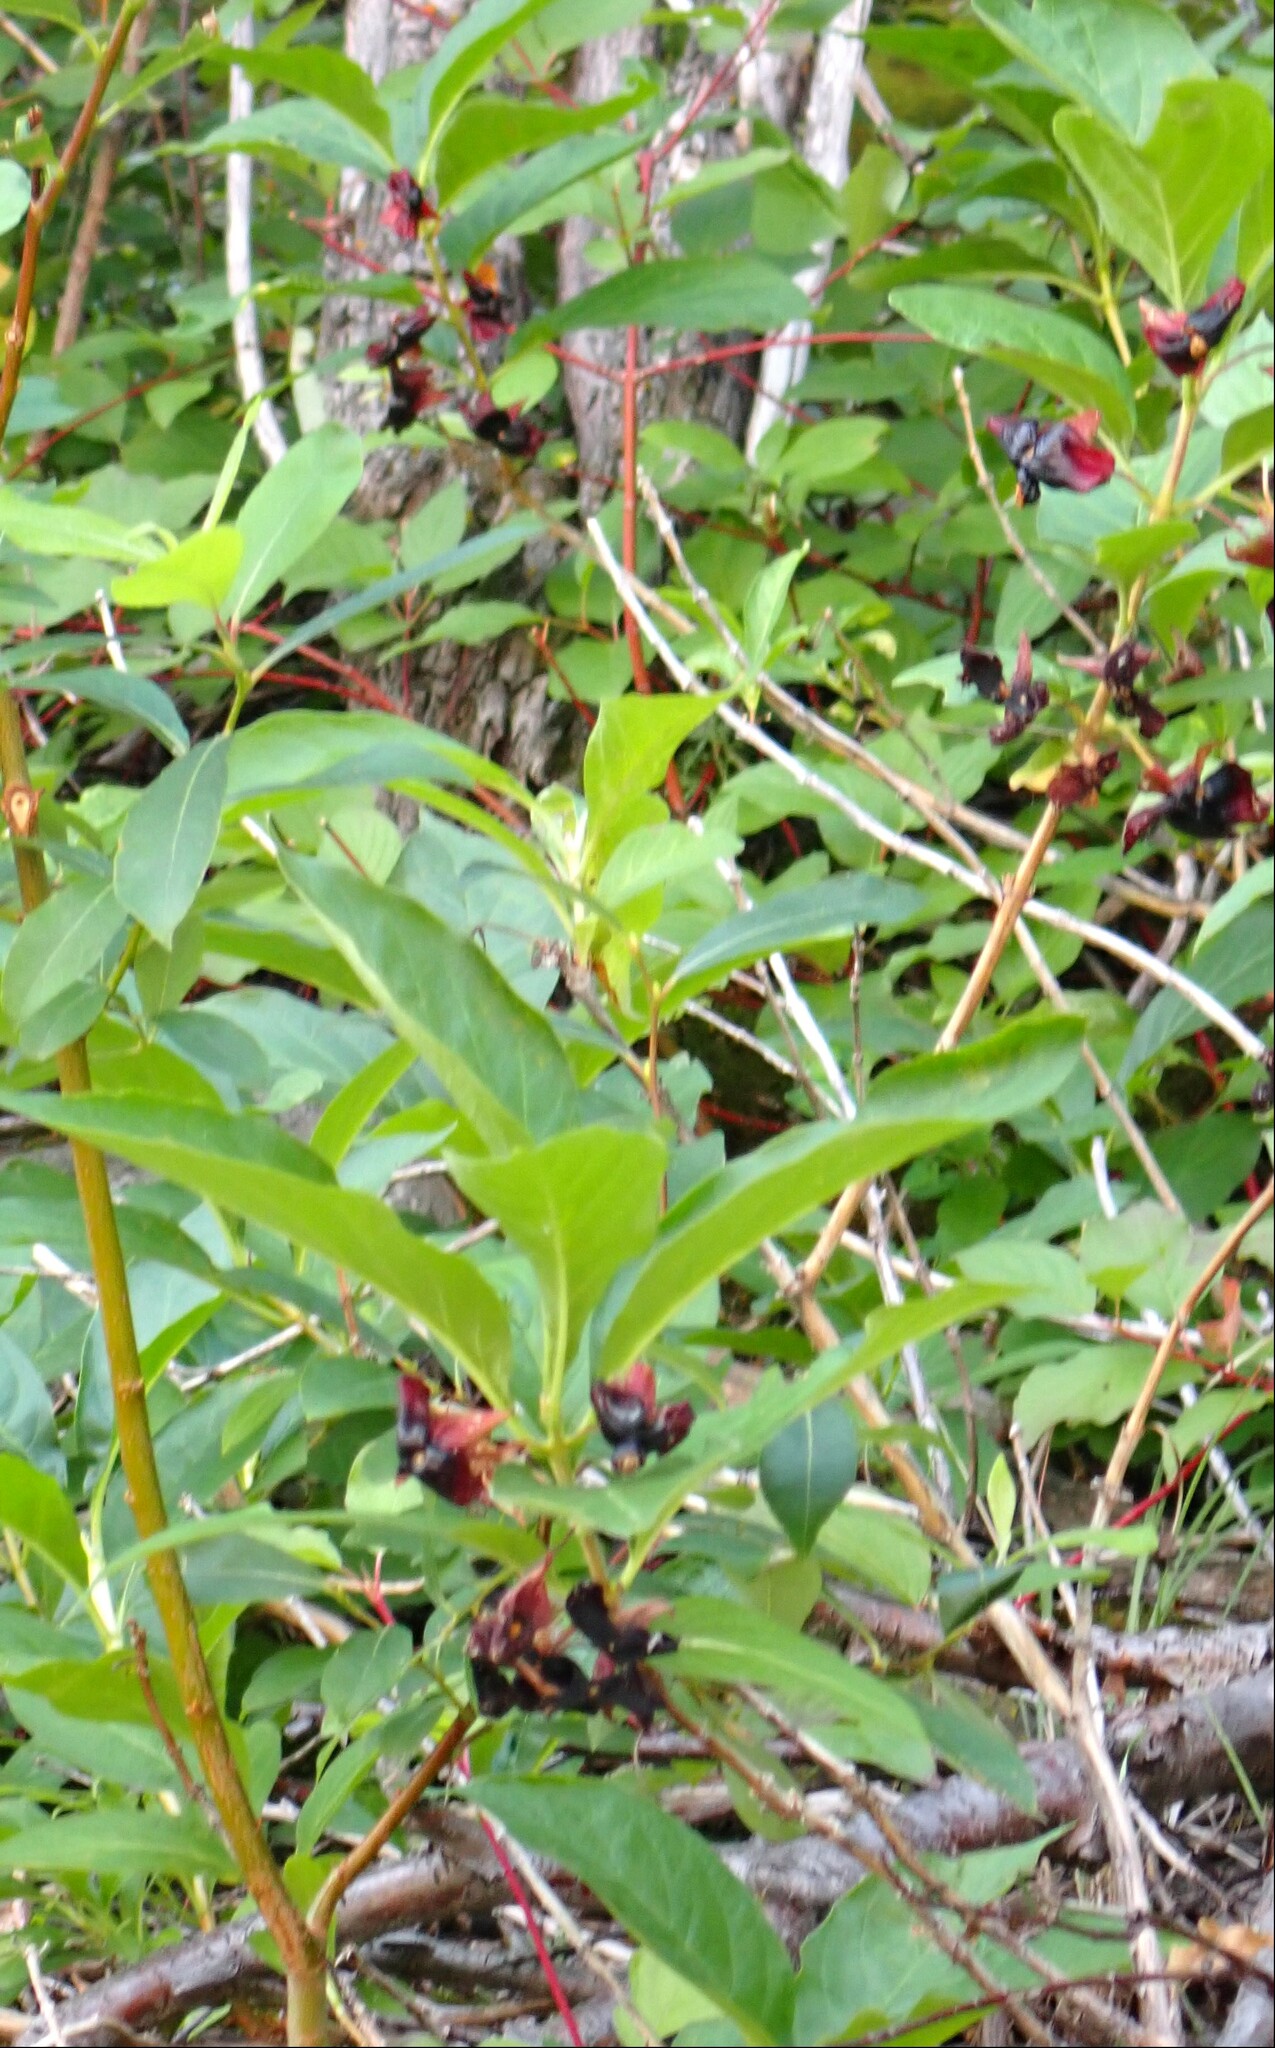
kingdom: Plantae
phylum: Tracheophyta
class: Magnoliopsida
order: Dipsacales
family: Caprifoliaceae
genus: Lonicera
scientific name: Lonicera involucrata
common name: Californian honeysuckle
